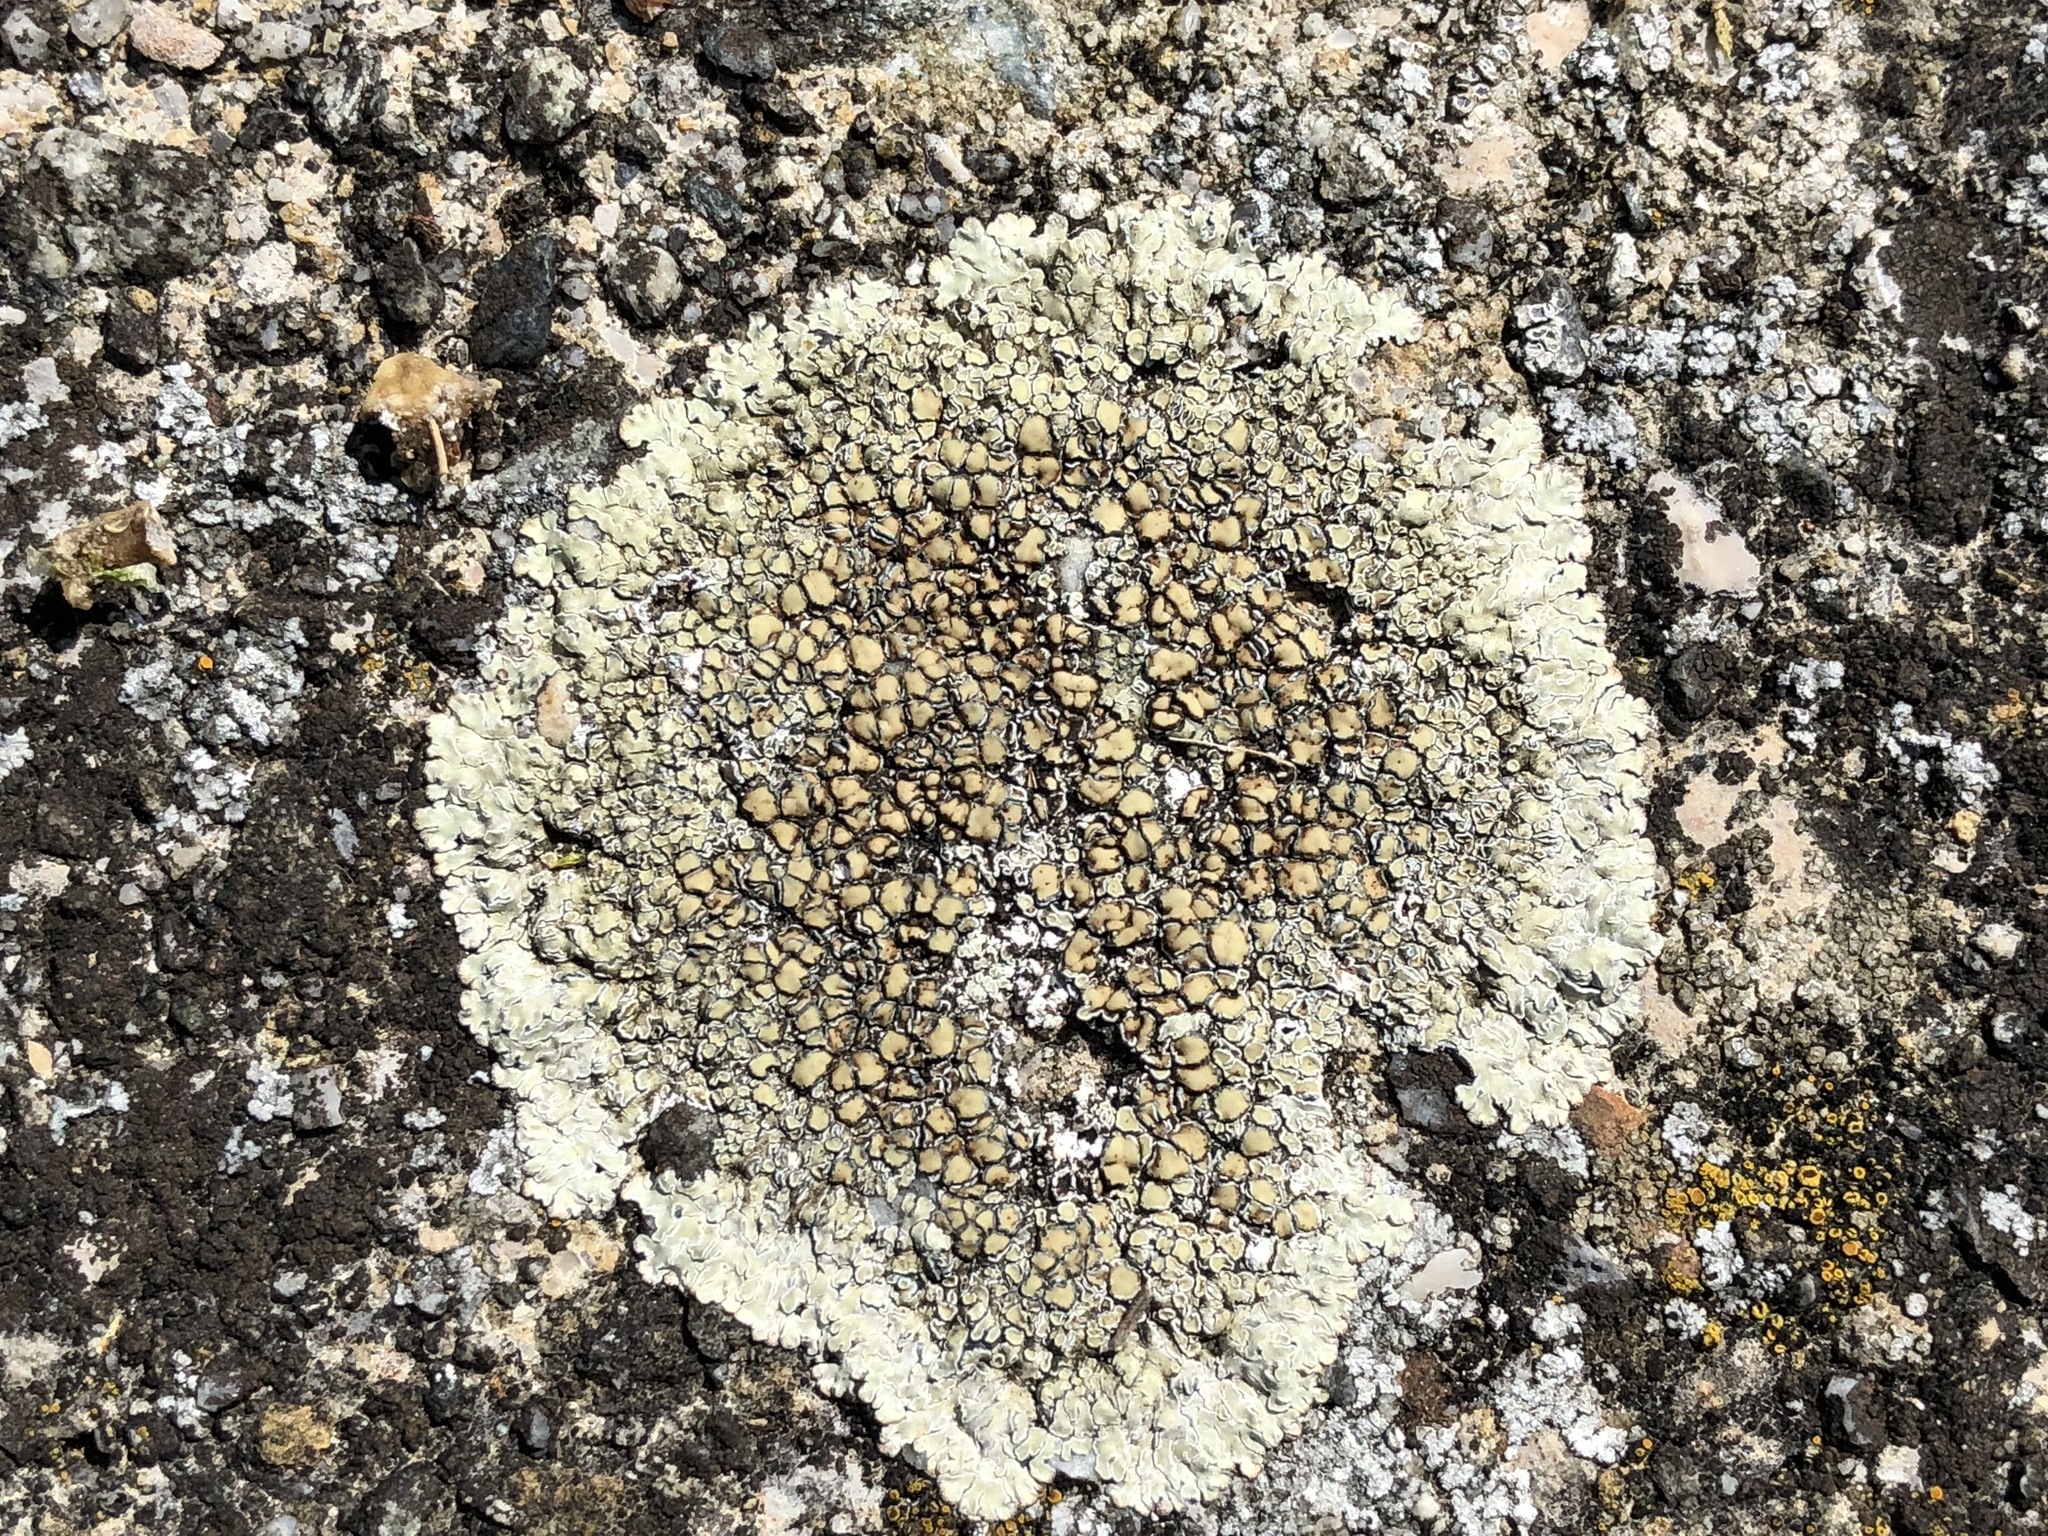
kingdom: Fungi
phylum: Ascomycota
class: Lecanoromycetes
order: Lecanorales
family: Lecanoraceae
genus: Protoparmeliopsis
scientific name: Protoparmeliopsis muralis
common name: Stonewall rim lichen
